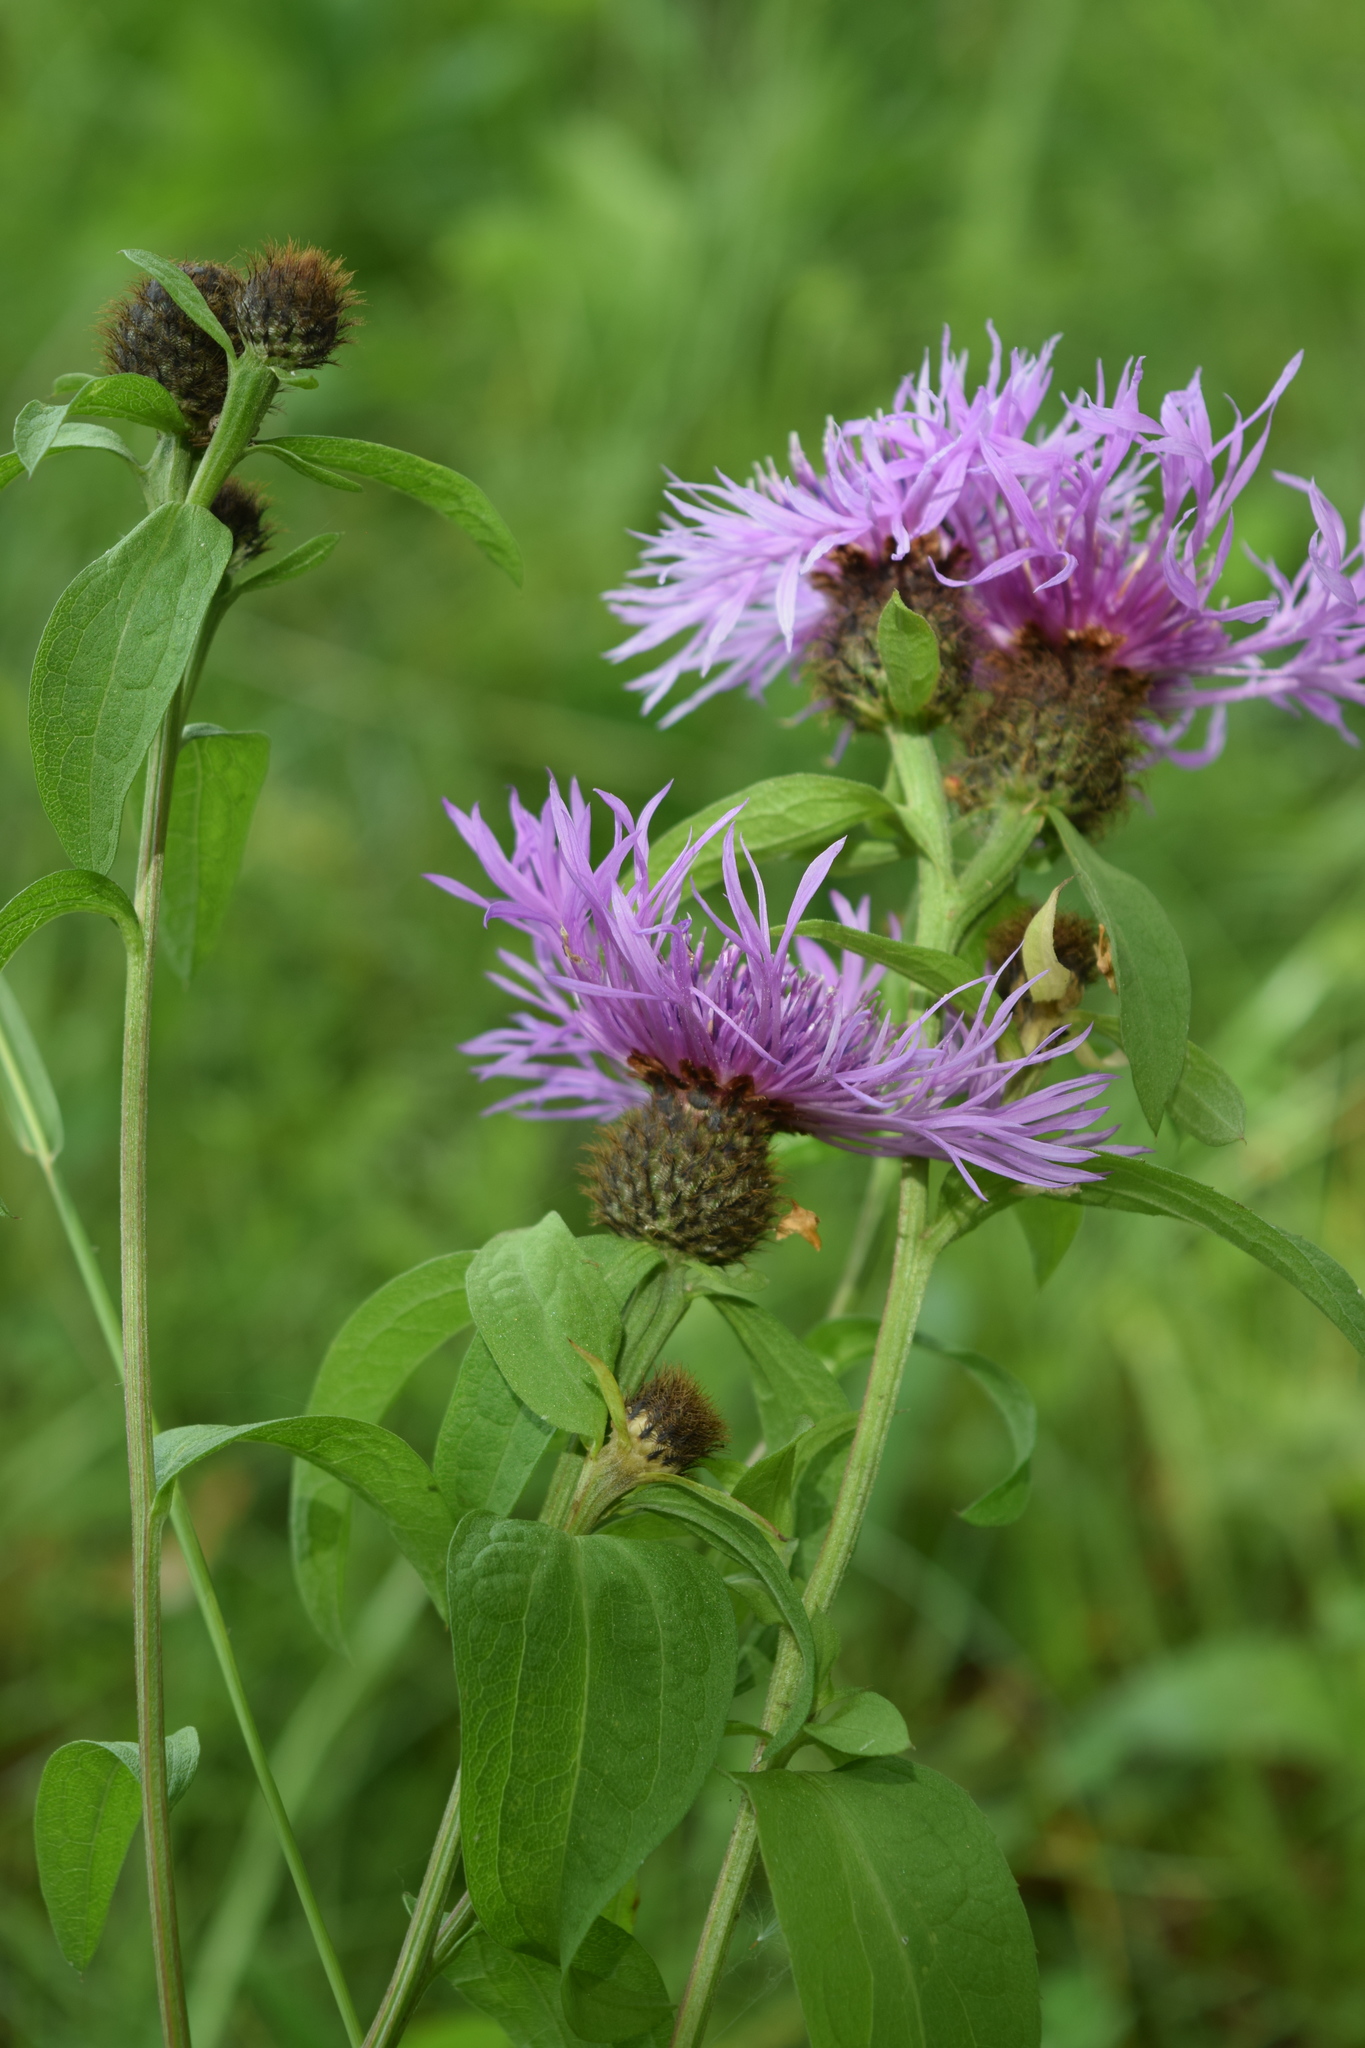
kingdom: Plantae
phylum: Tracheophyta
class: Magnoliopsida
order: Asterales
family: Asteraceae
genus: Centaurea
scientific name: Centaurea phrygia
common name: Wig knapweed
